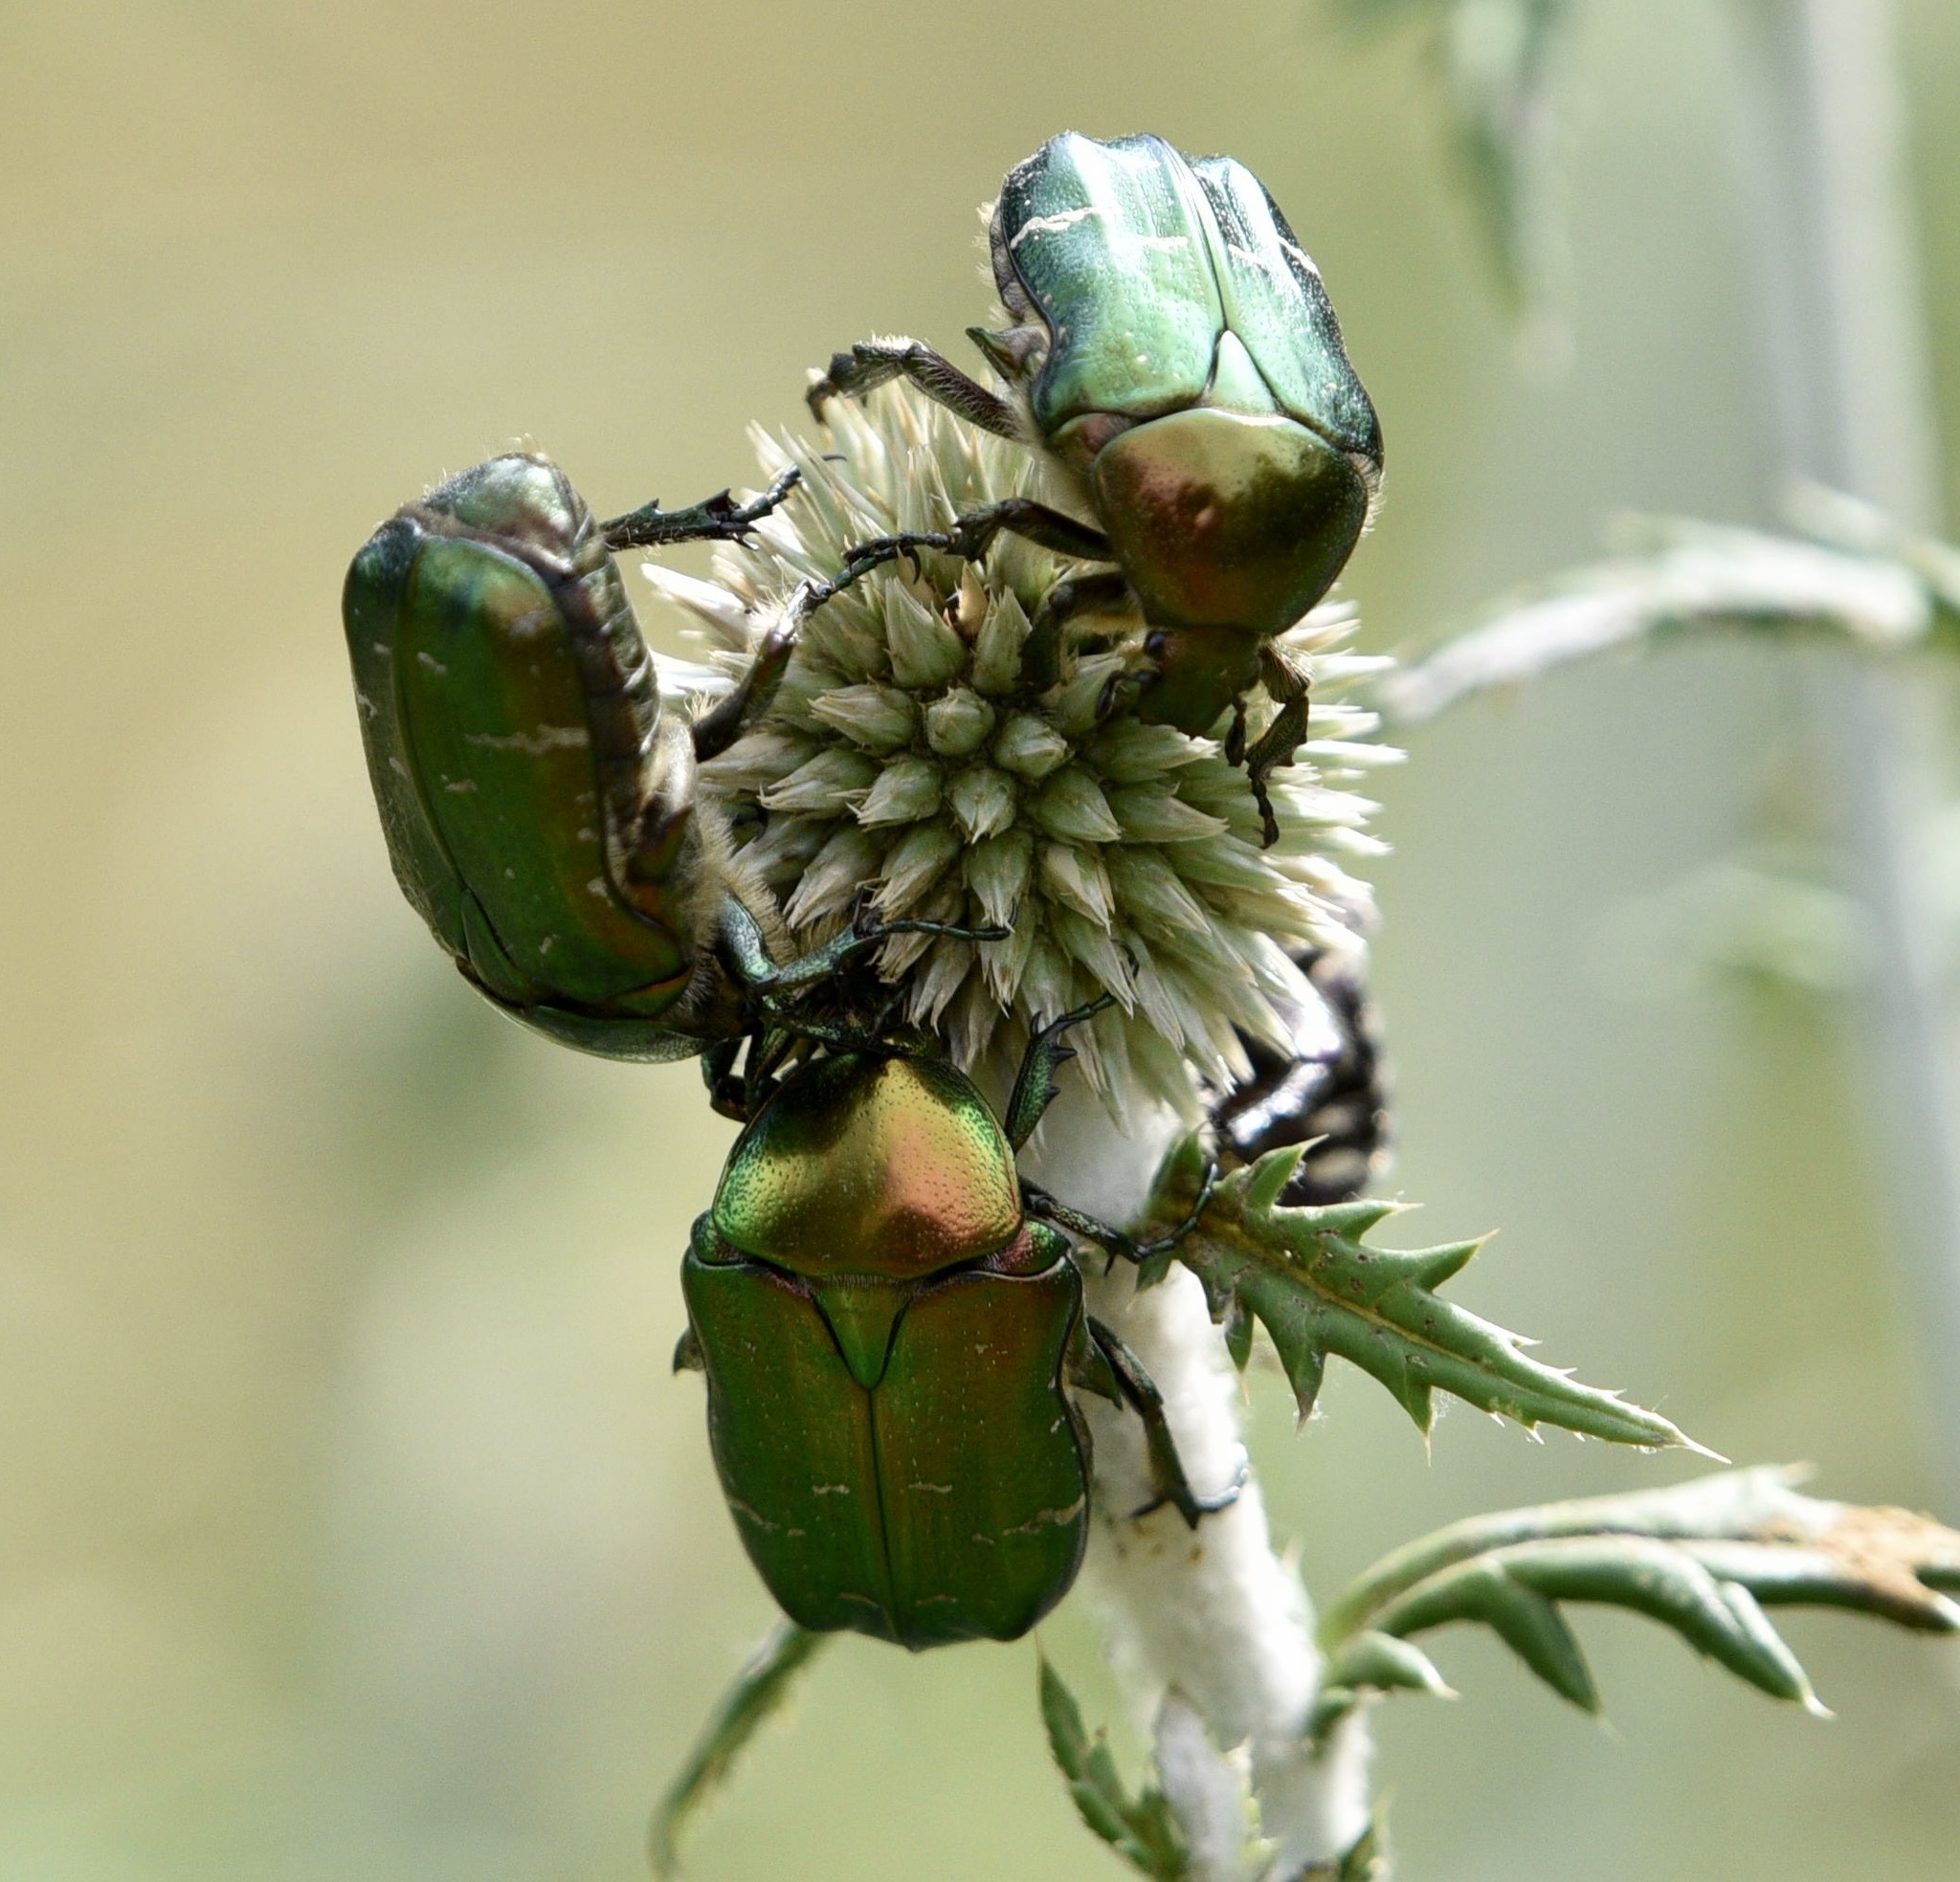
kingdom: Animalia
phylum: Arthropoda
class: Insecta
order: Coleoptera
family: Scarabaeidae
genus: Cetonia
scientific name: Cetonia aurata
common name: Rose chafer
